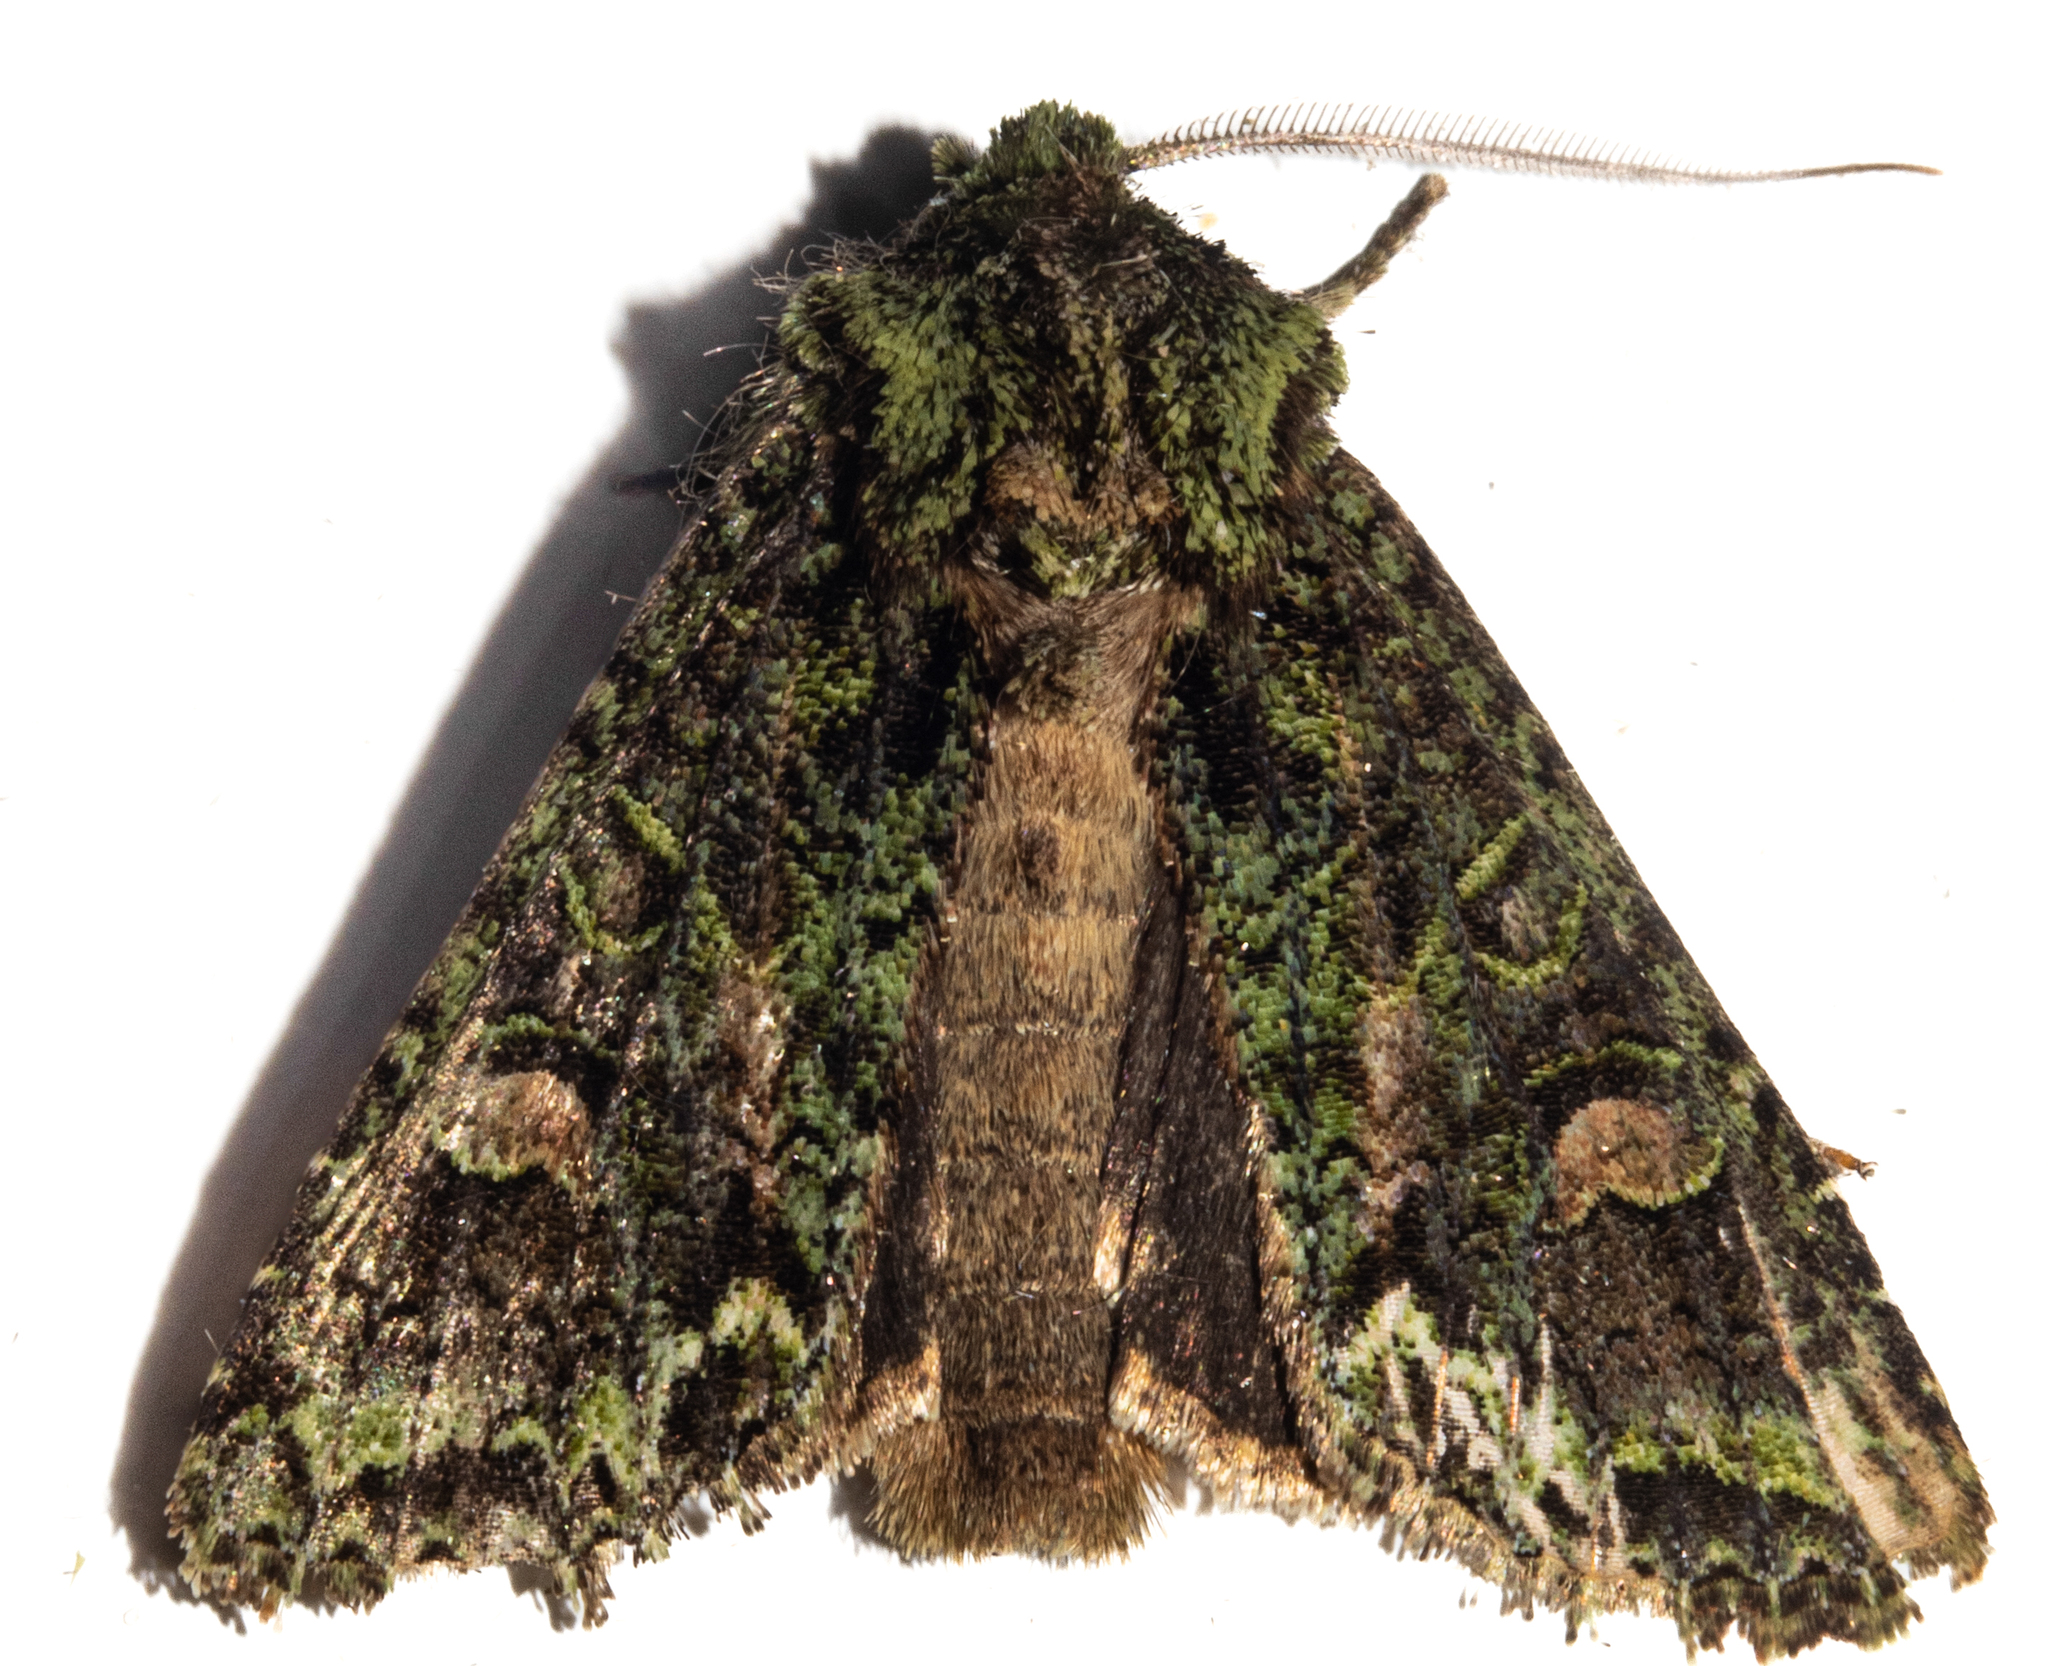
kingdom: Animalia
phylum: Arthropoda
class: Insecta
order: Lepidoptera
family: Noctuidae
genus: Ichneutica
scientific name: Ichneutica
